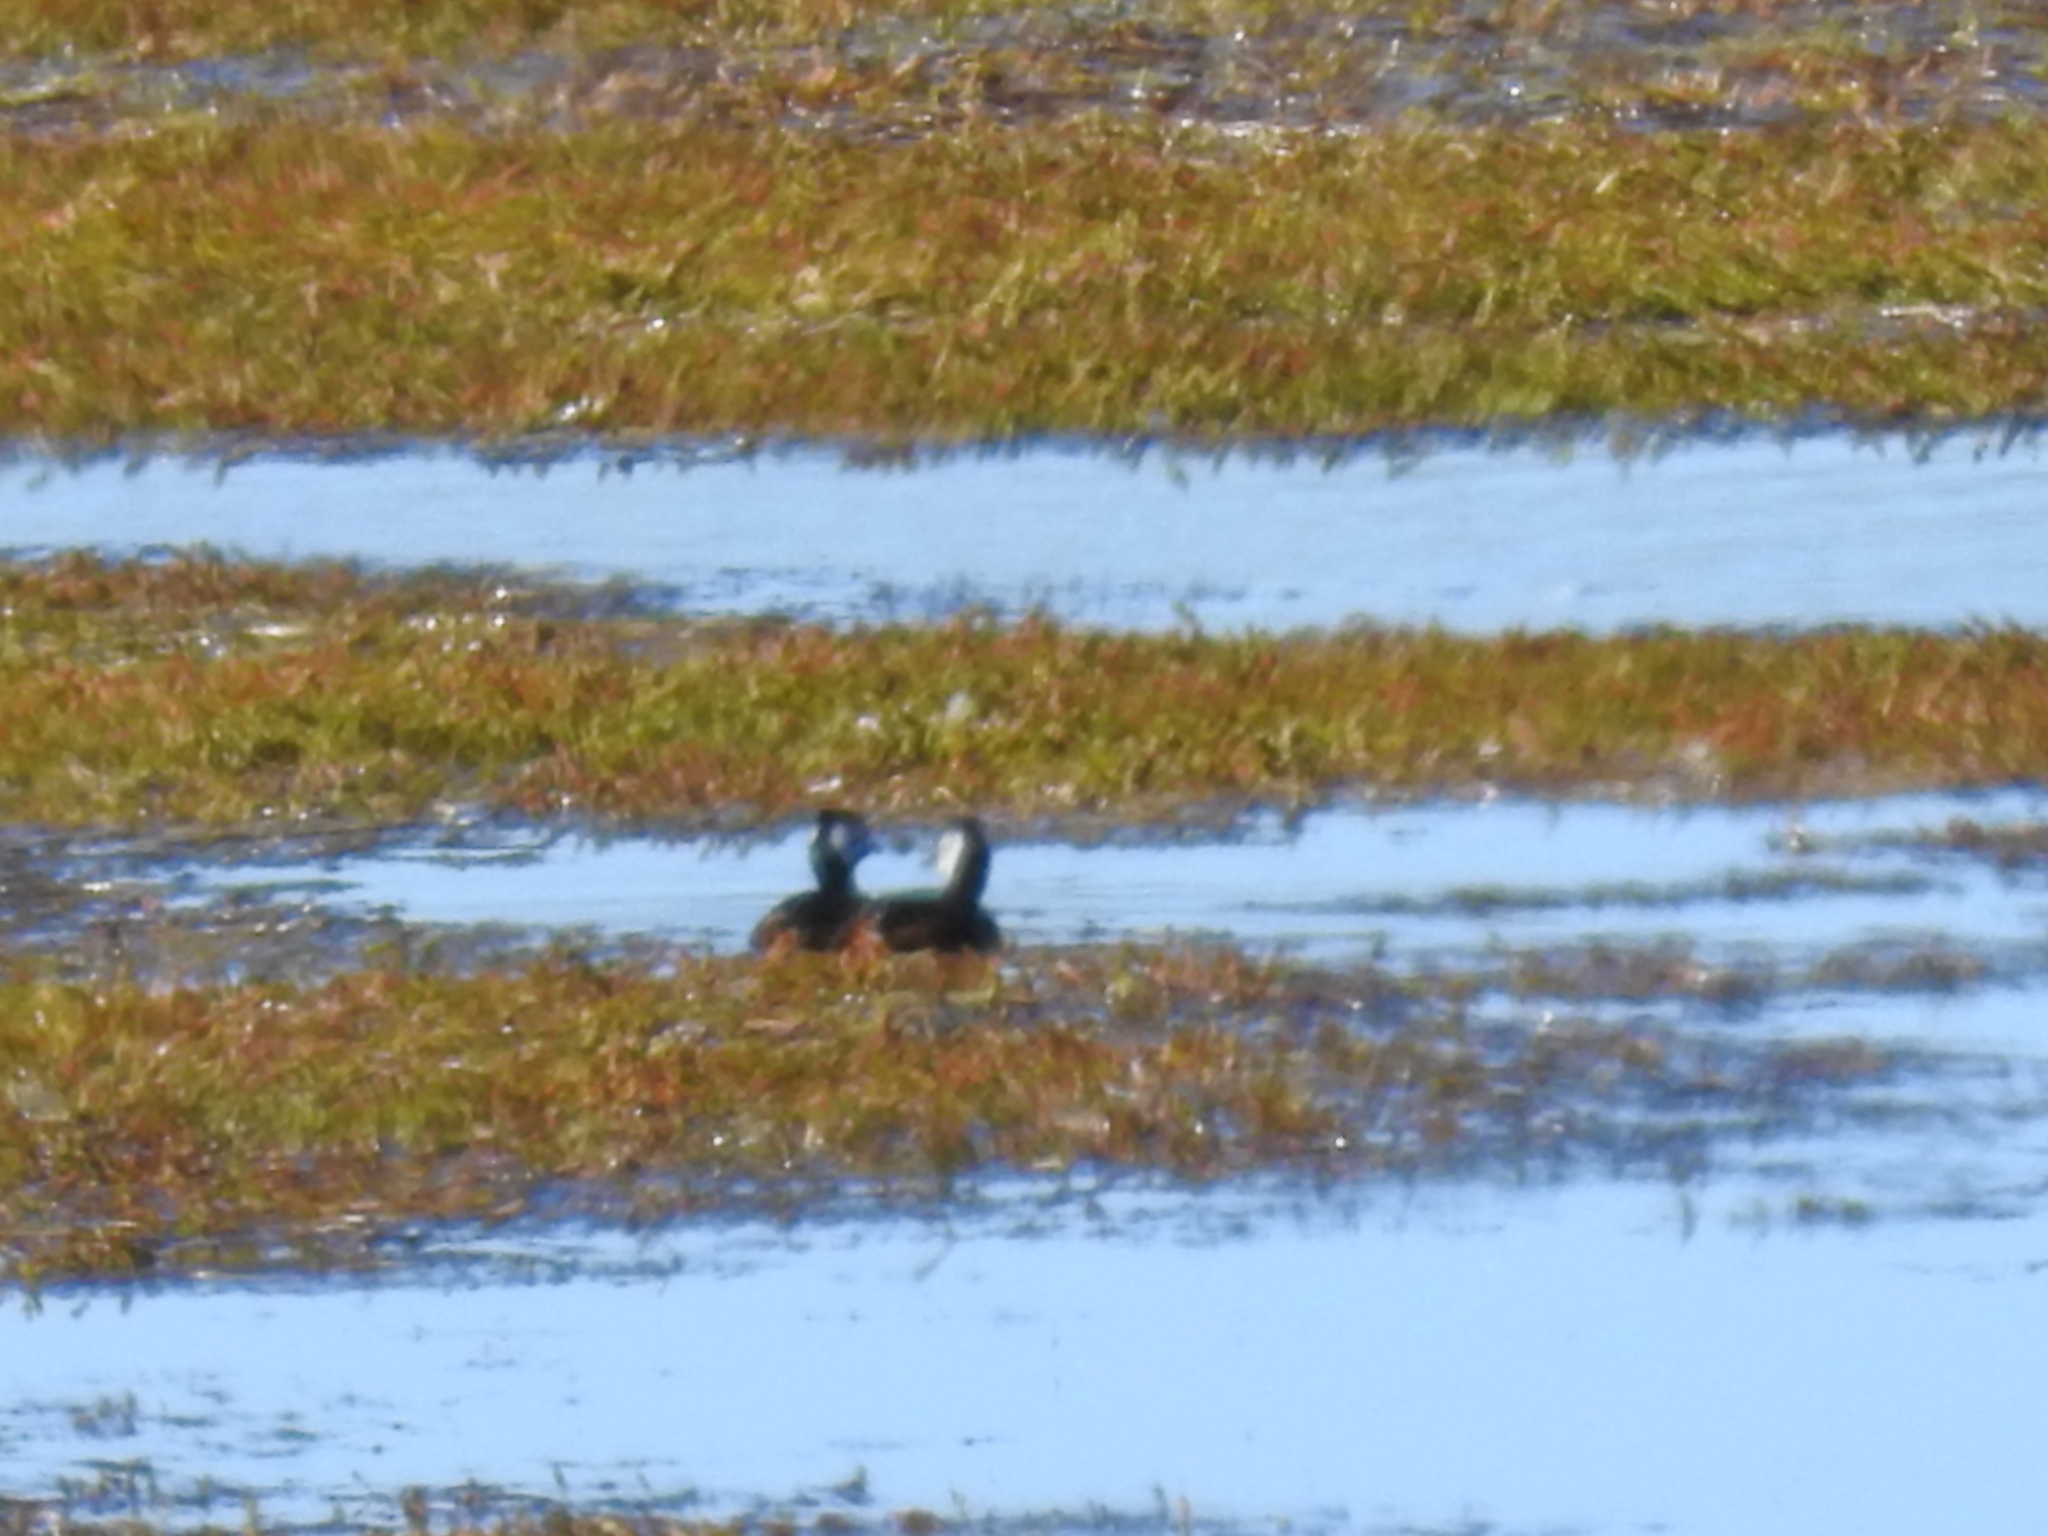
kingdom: Animalia
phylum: Chordata
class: Aves
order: Podicipediformes
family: Podicipedidae
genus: Rollandia
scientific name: Rollandia rolland
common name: White-tufted grebe
